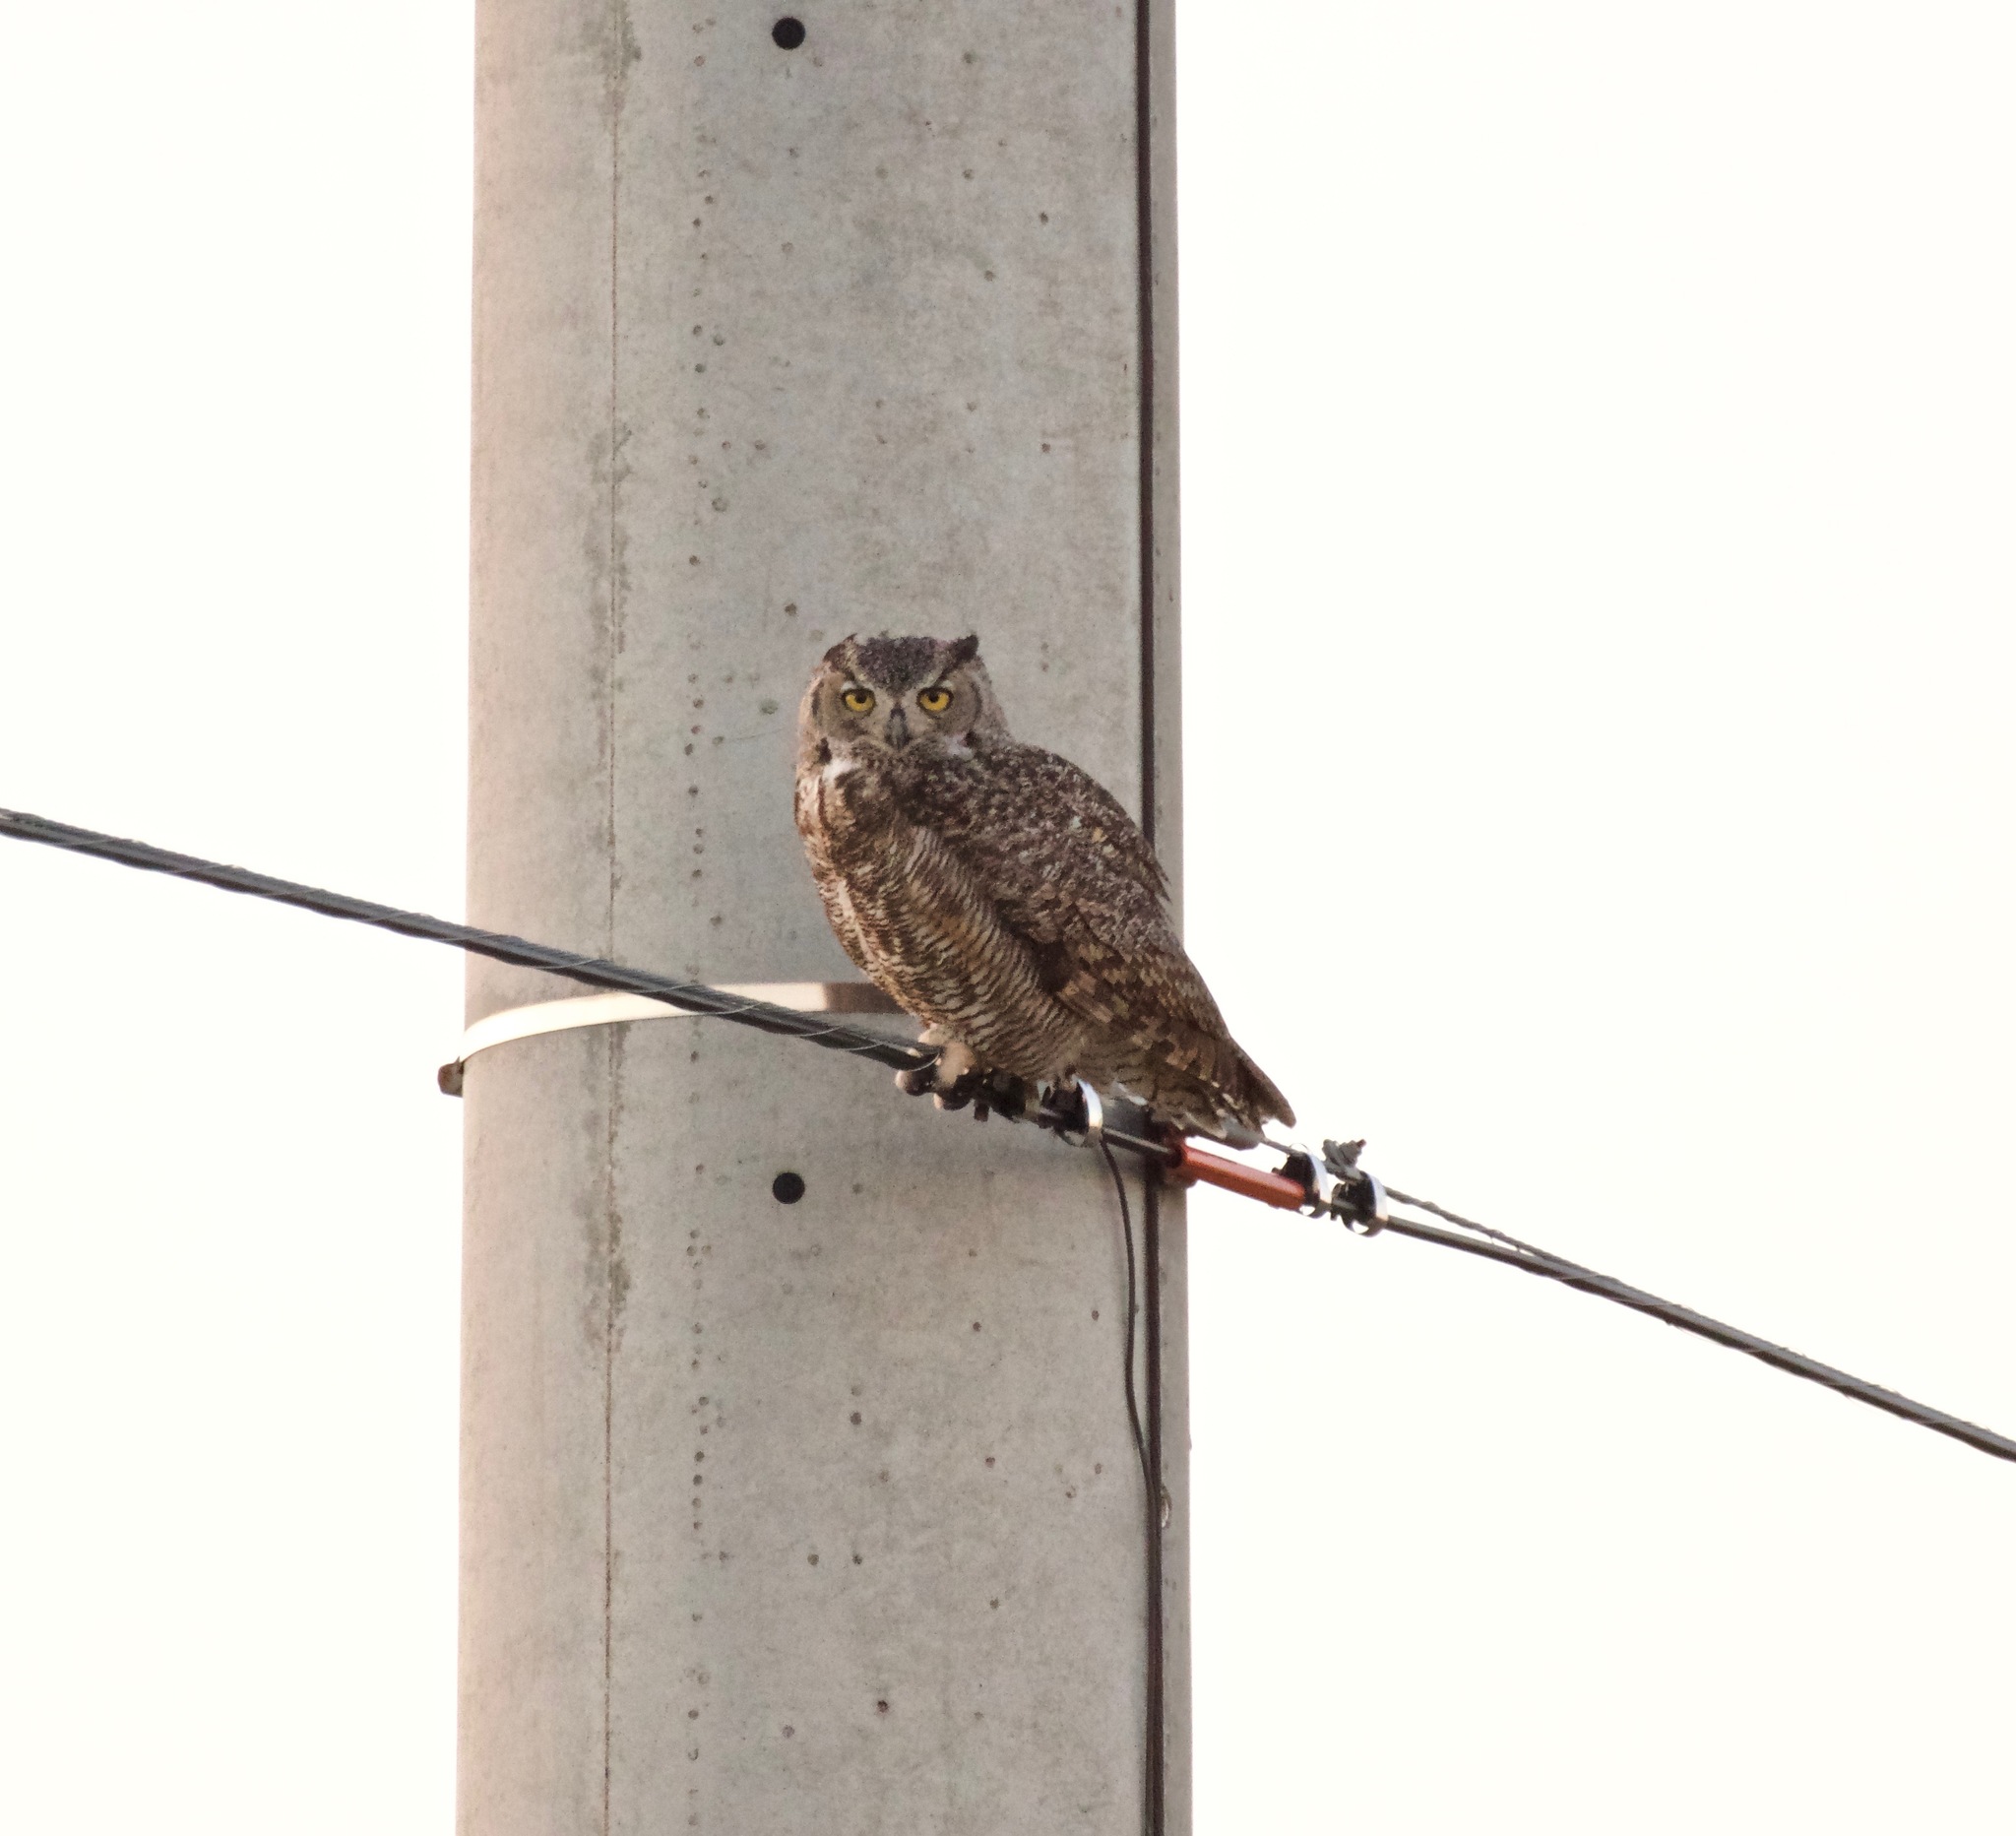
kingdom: Animalia
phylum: Chordata
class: Aves
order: Strigiformes
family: Strigidae
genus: Bubo
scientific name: Bubo virginianus
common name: Great horned owl
